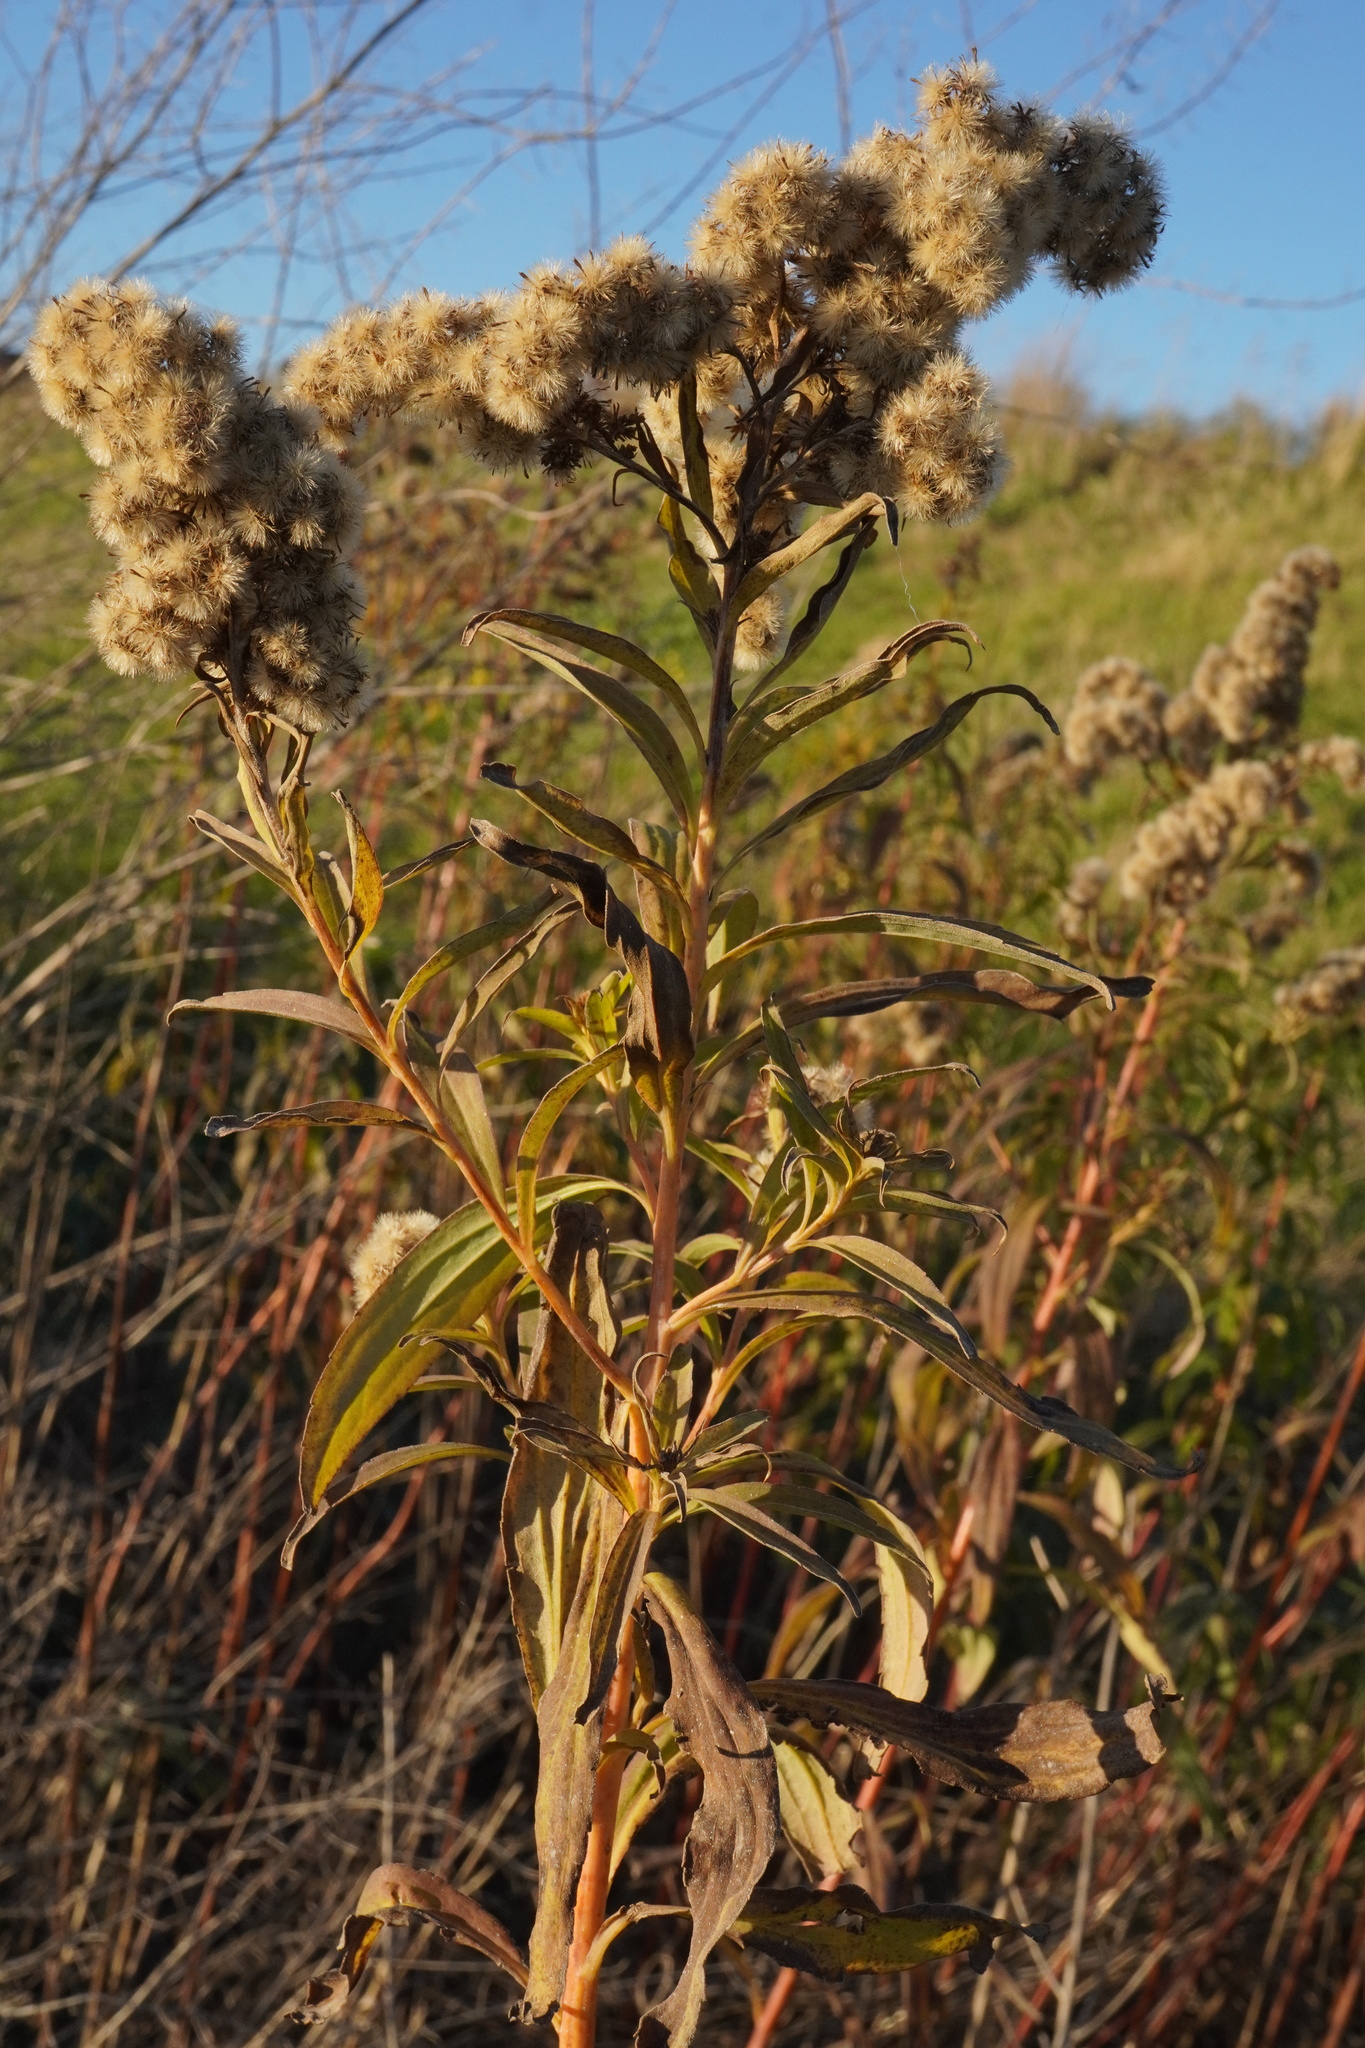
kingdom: Plantae
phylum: Tracheophyta
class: Magnoliopsida
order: Asterales
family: Asteraceae
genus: Solidago
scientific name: Solidago gigantea
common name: Giant goldenrod
